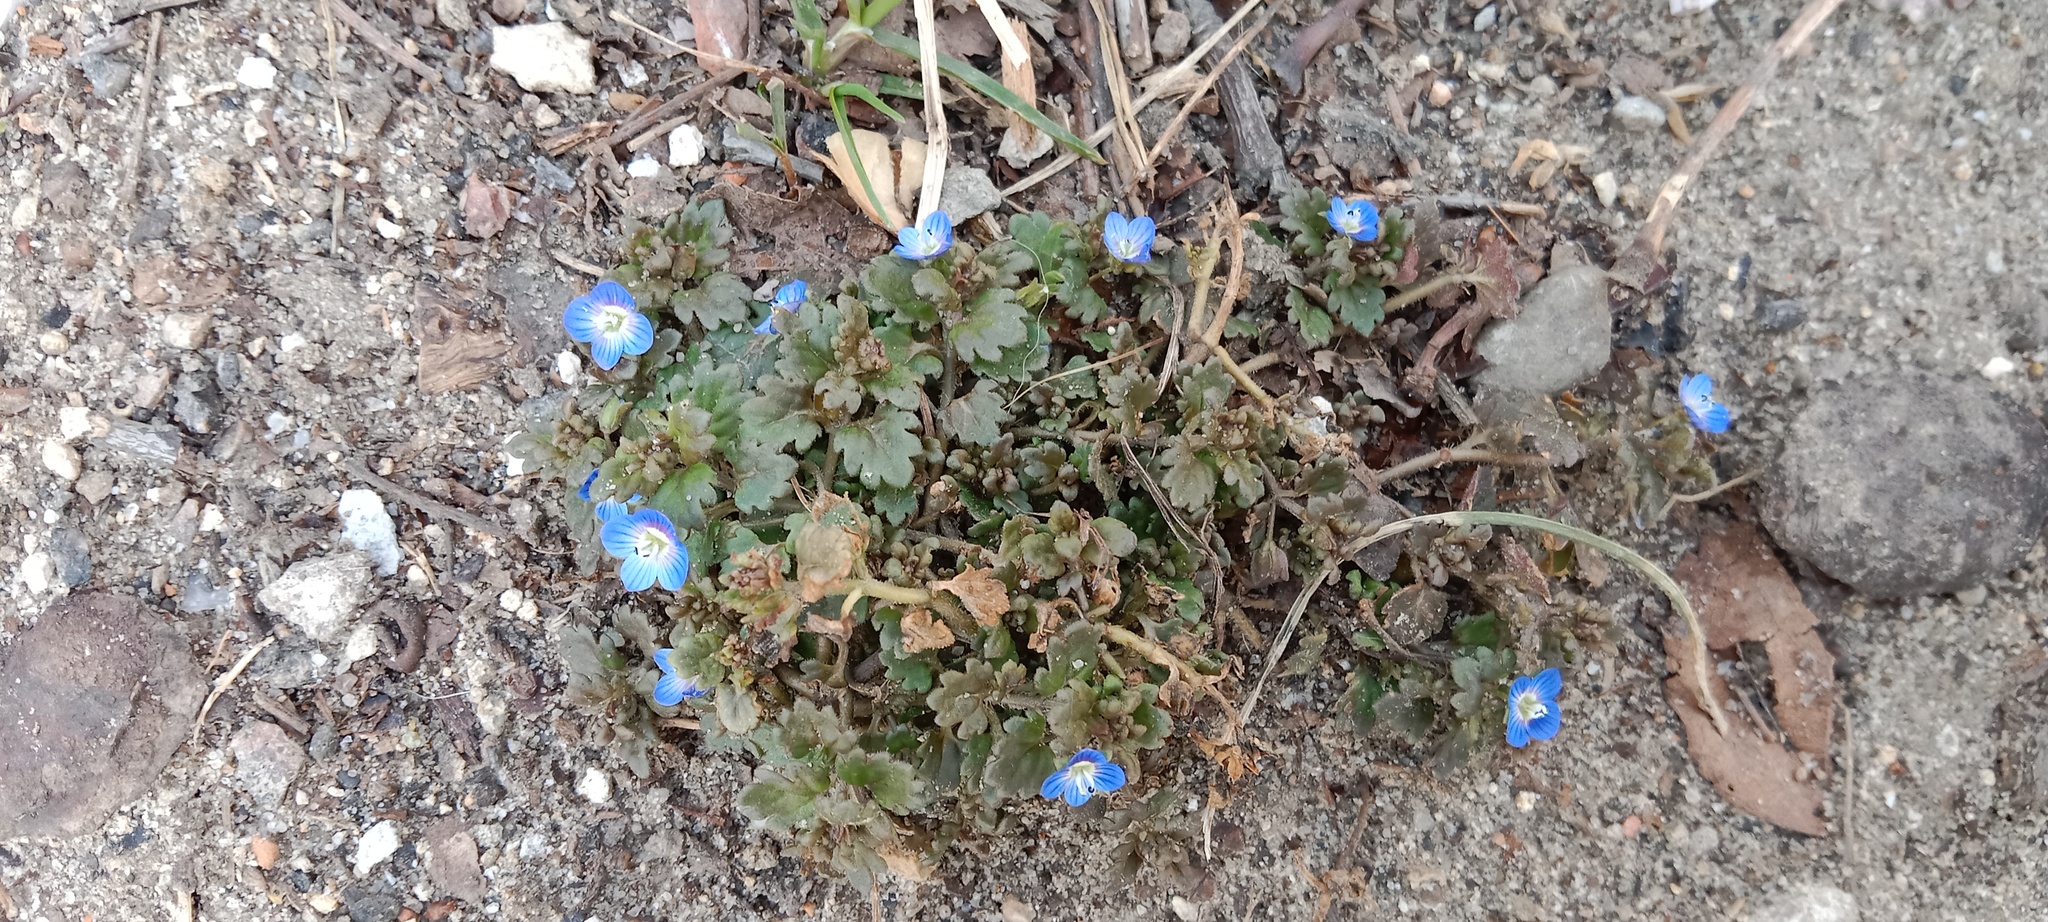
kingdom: Plantae
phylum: Tracheophyta
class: Magnoliopsida
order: Lamiales
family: Plantaginaceae
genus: Veronica
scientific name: Veronica polita
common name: Grey field-speedwell
